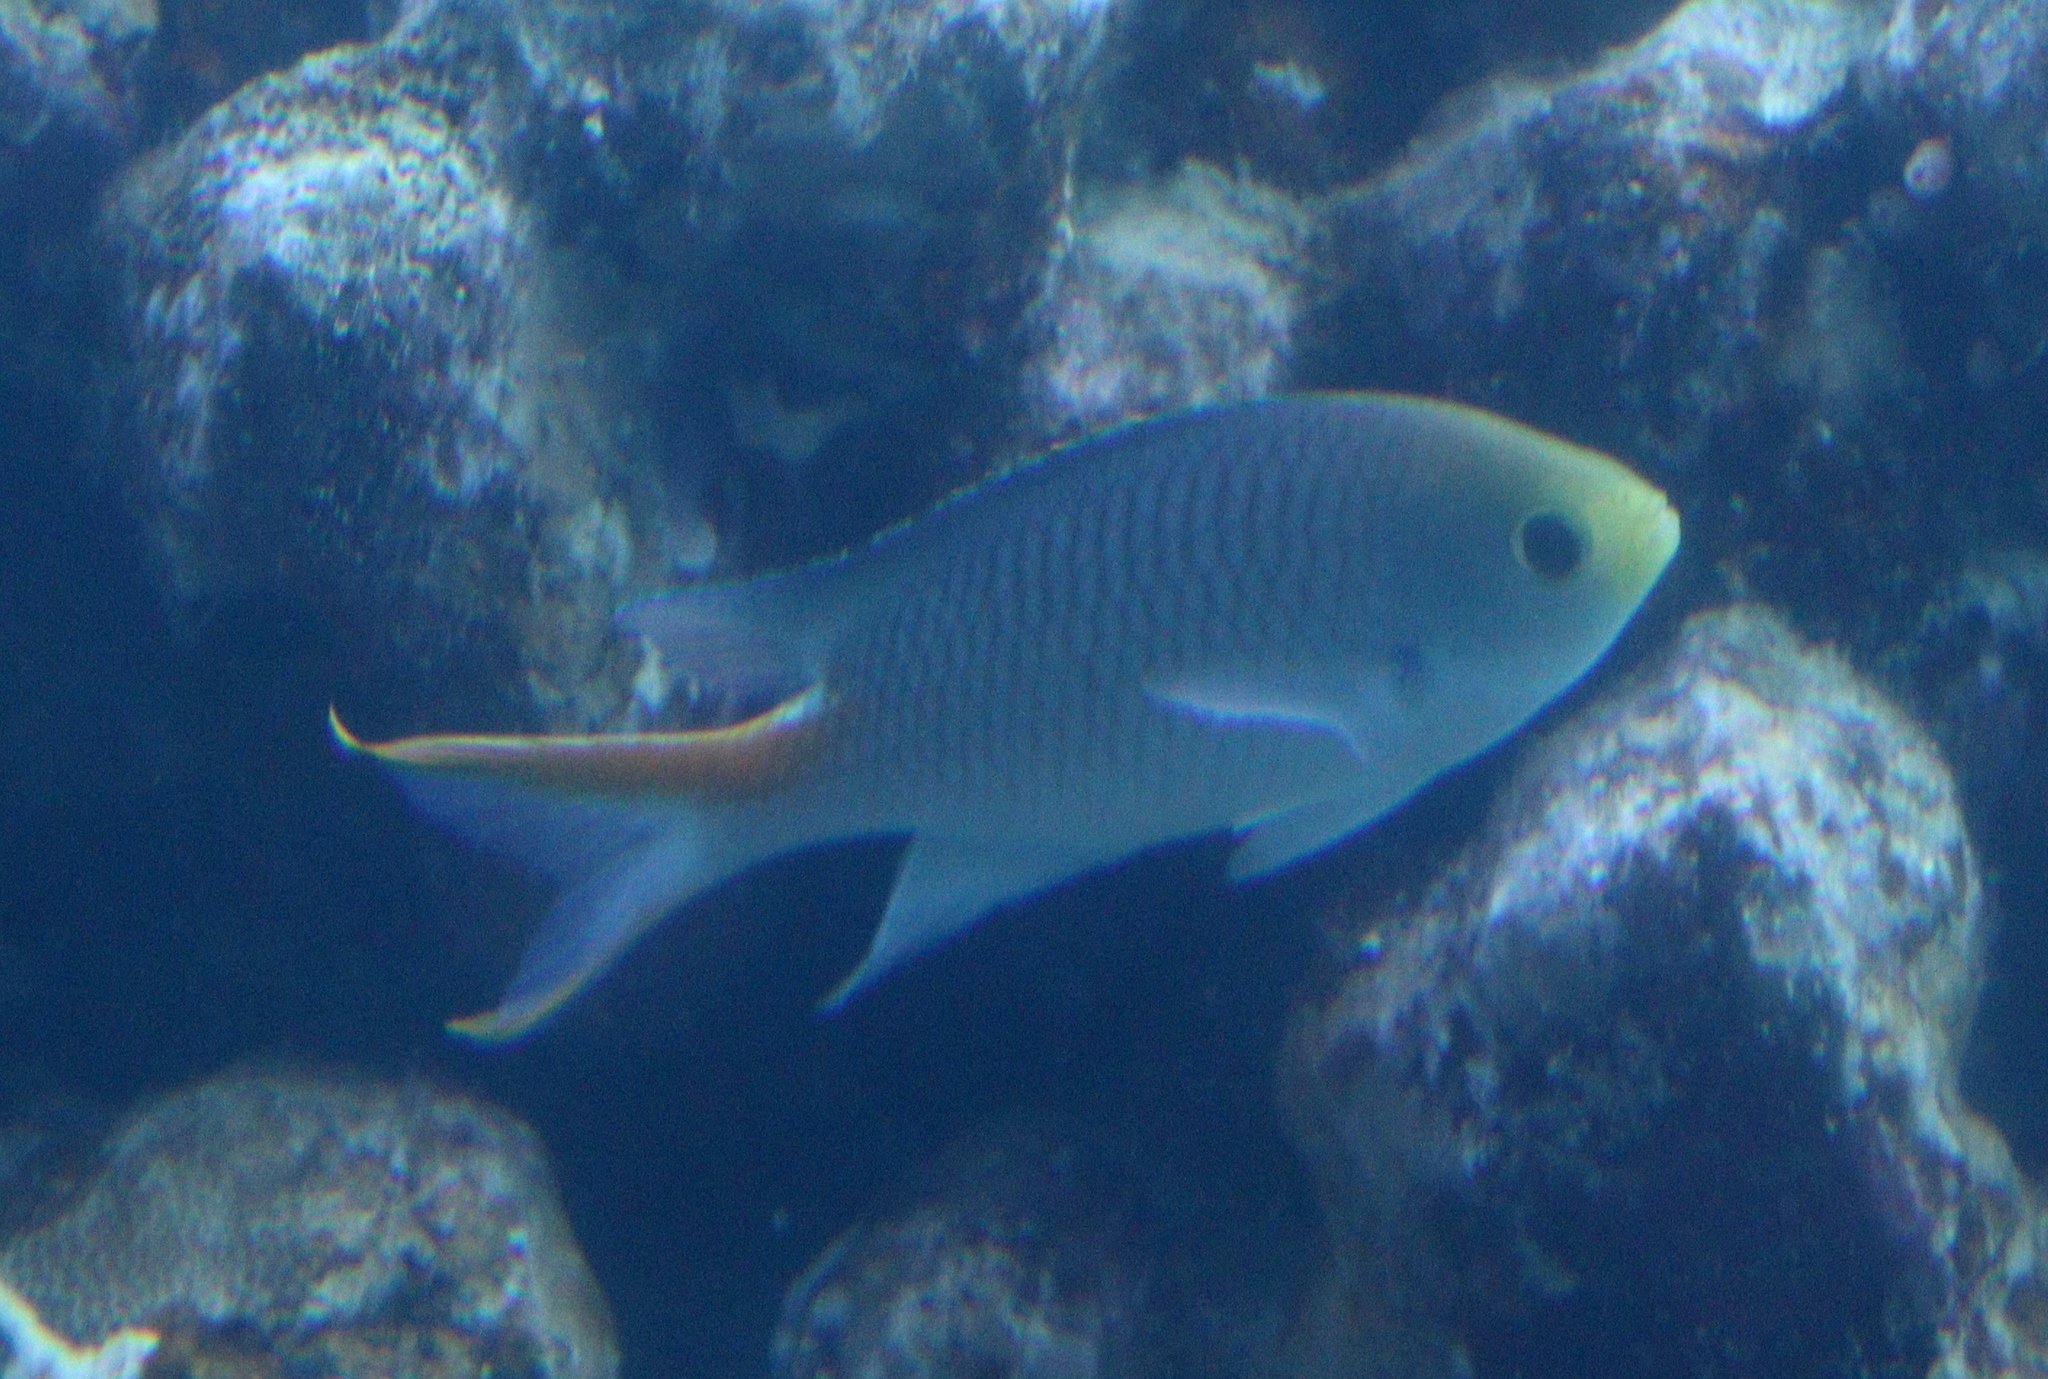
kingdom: Animalia
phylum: Chordata
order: Perciformes
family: Pomacentridae
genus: Neopomacentrus
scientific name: Neopomacentrus miryae
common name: Miry's demoiselle
